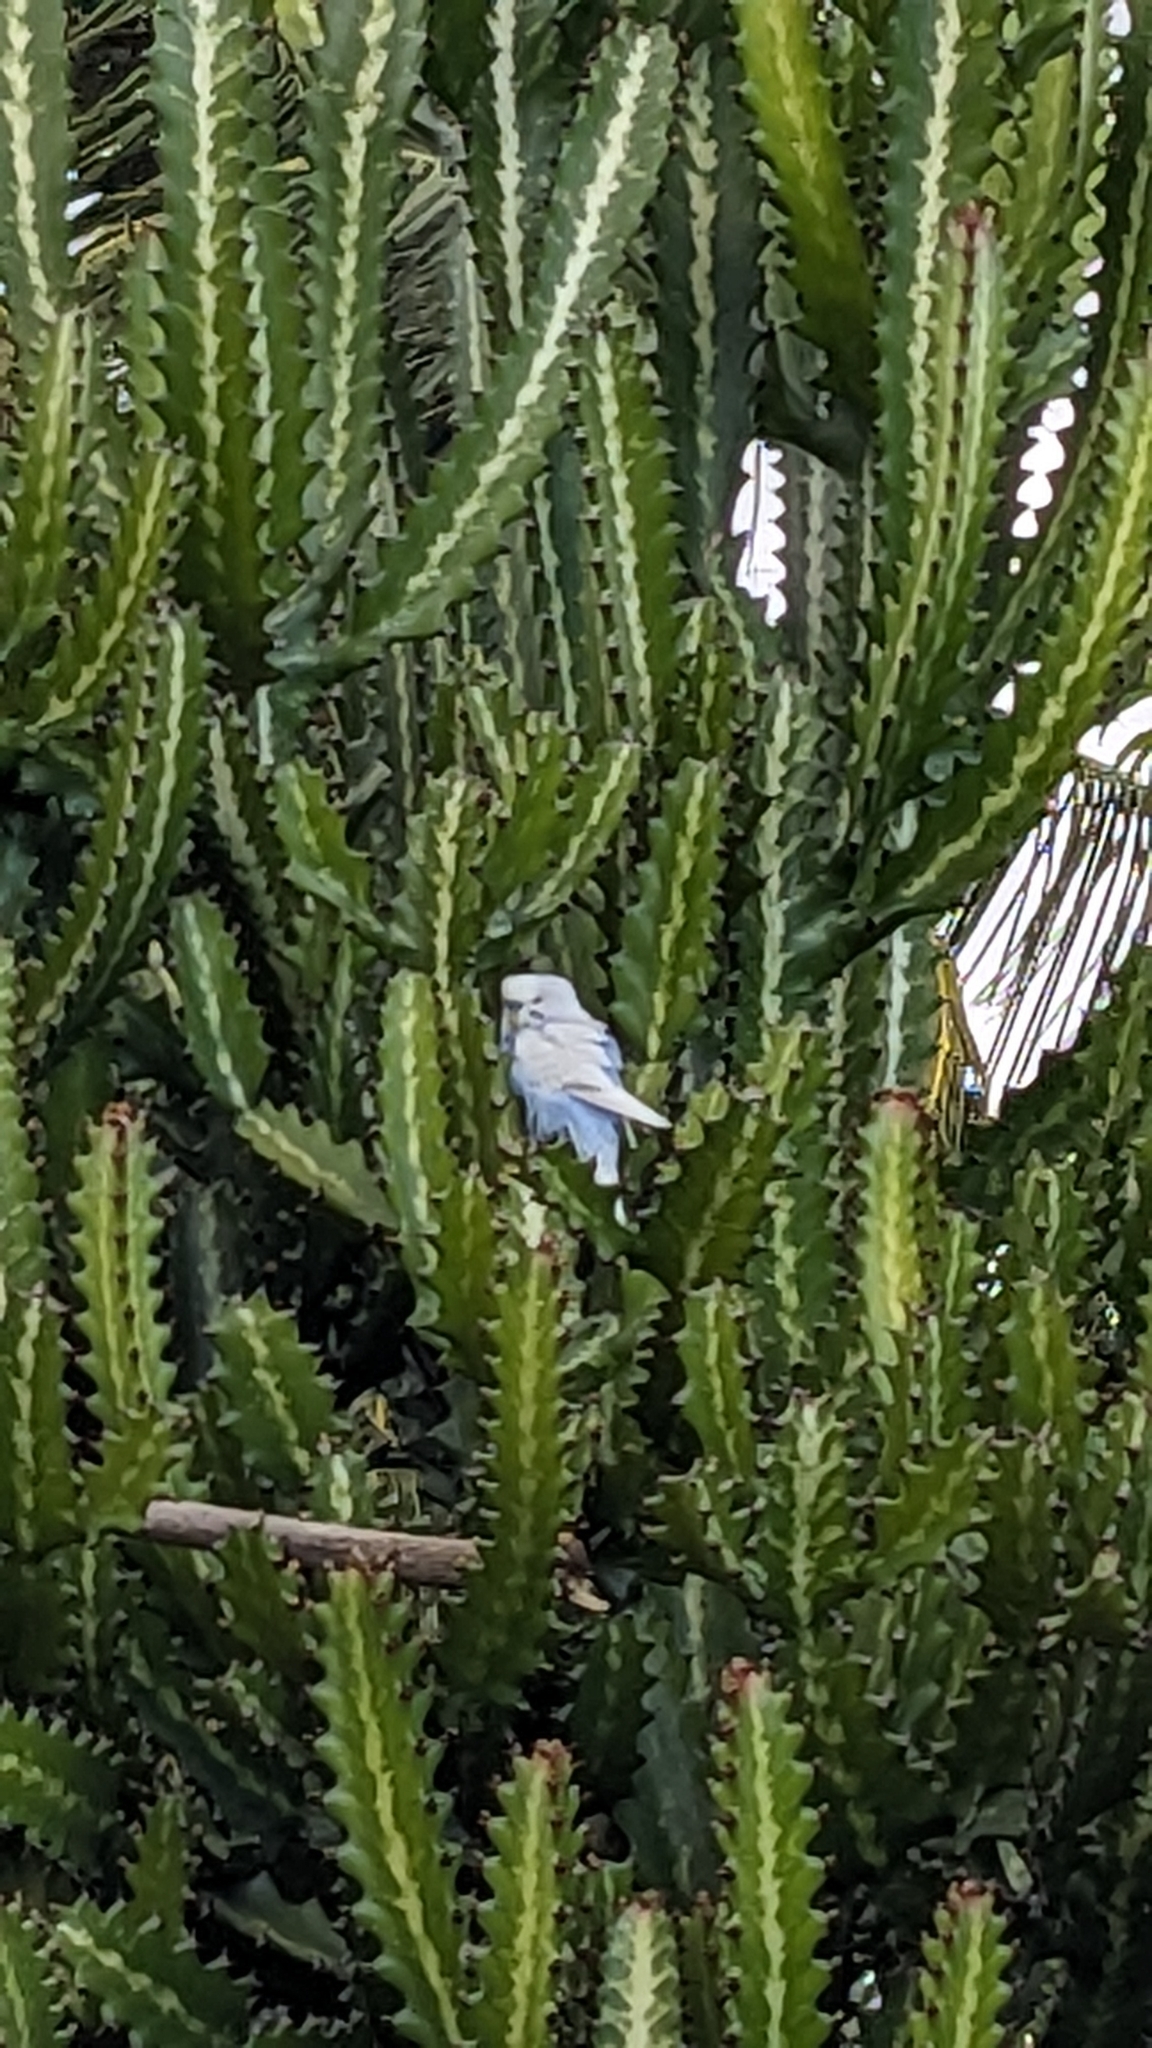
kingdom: Animalia
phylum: Chordata
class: Aves
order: Psittaciformes
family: Psittacidae
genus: Melopsittacus
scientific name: Melopsittacus undulatus
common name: Budgerigar
